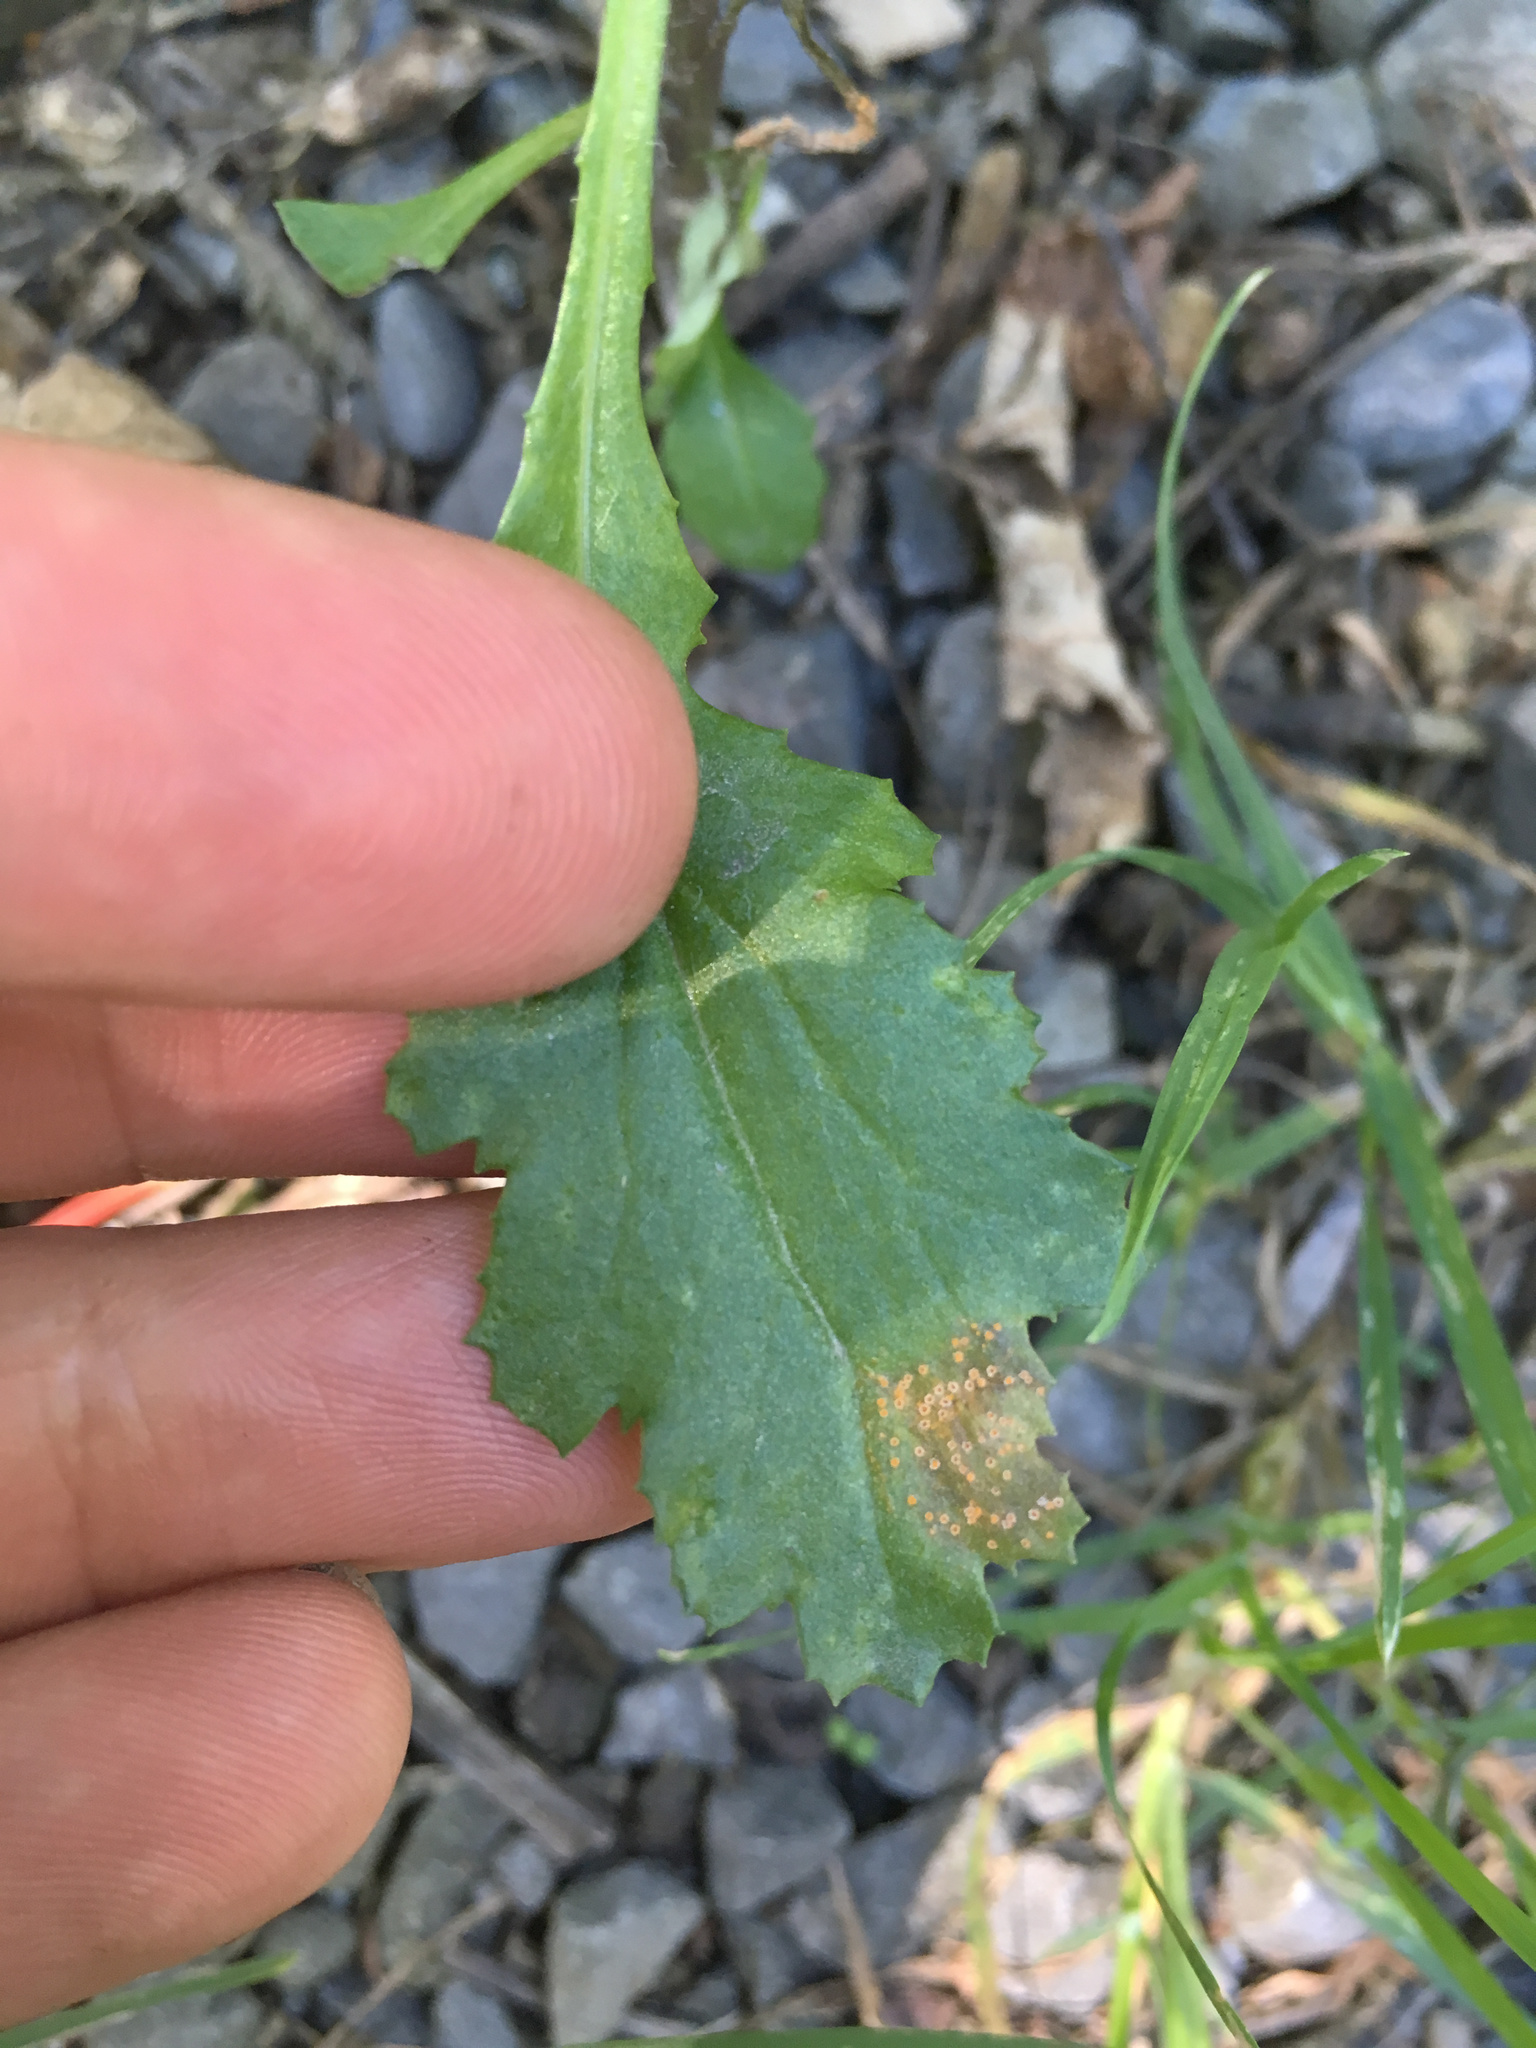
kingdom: Fungi
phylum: Basidiomycota
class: Pucciniomycetes
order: Pucciniales
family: Pucciniaceae
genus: Puccinia
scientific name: Puccinia lagenophorae
